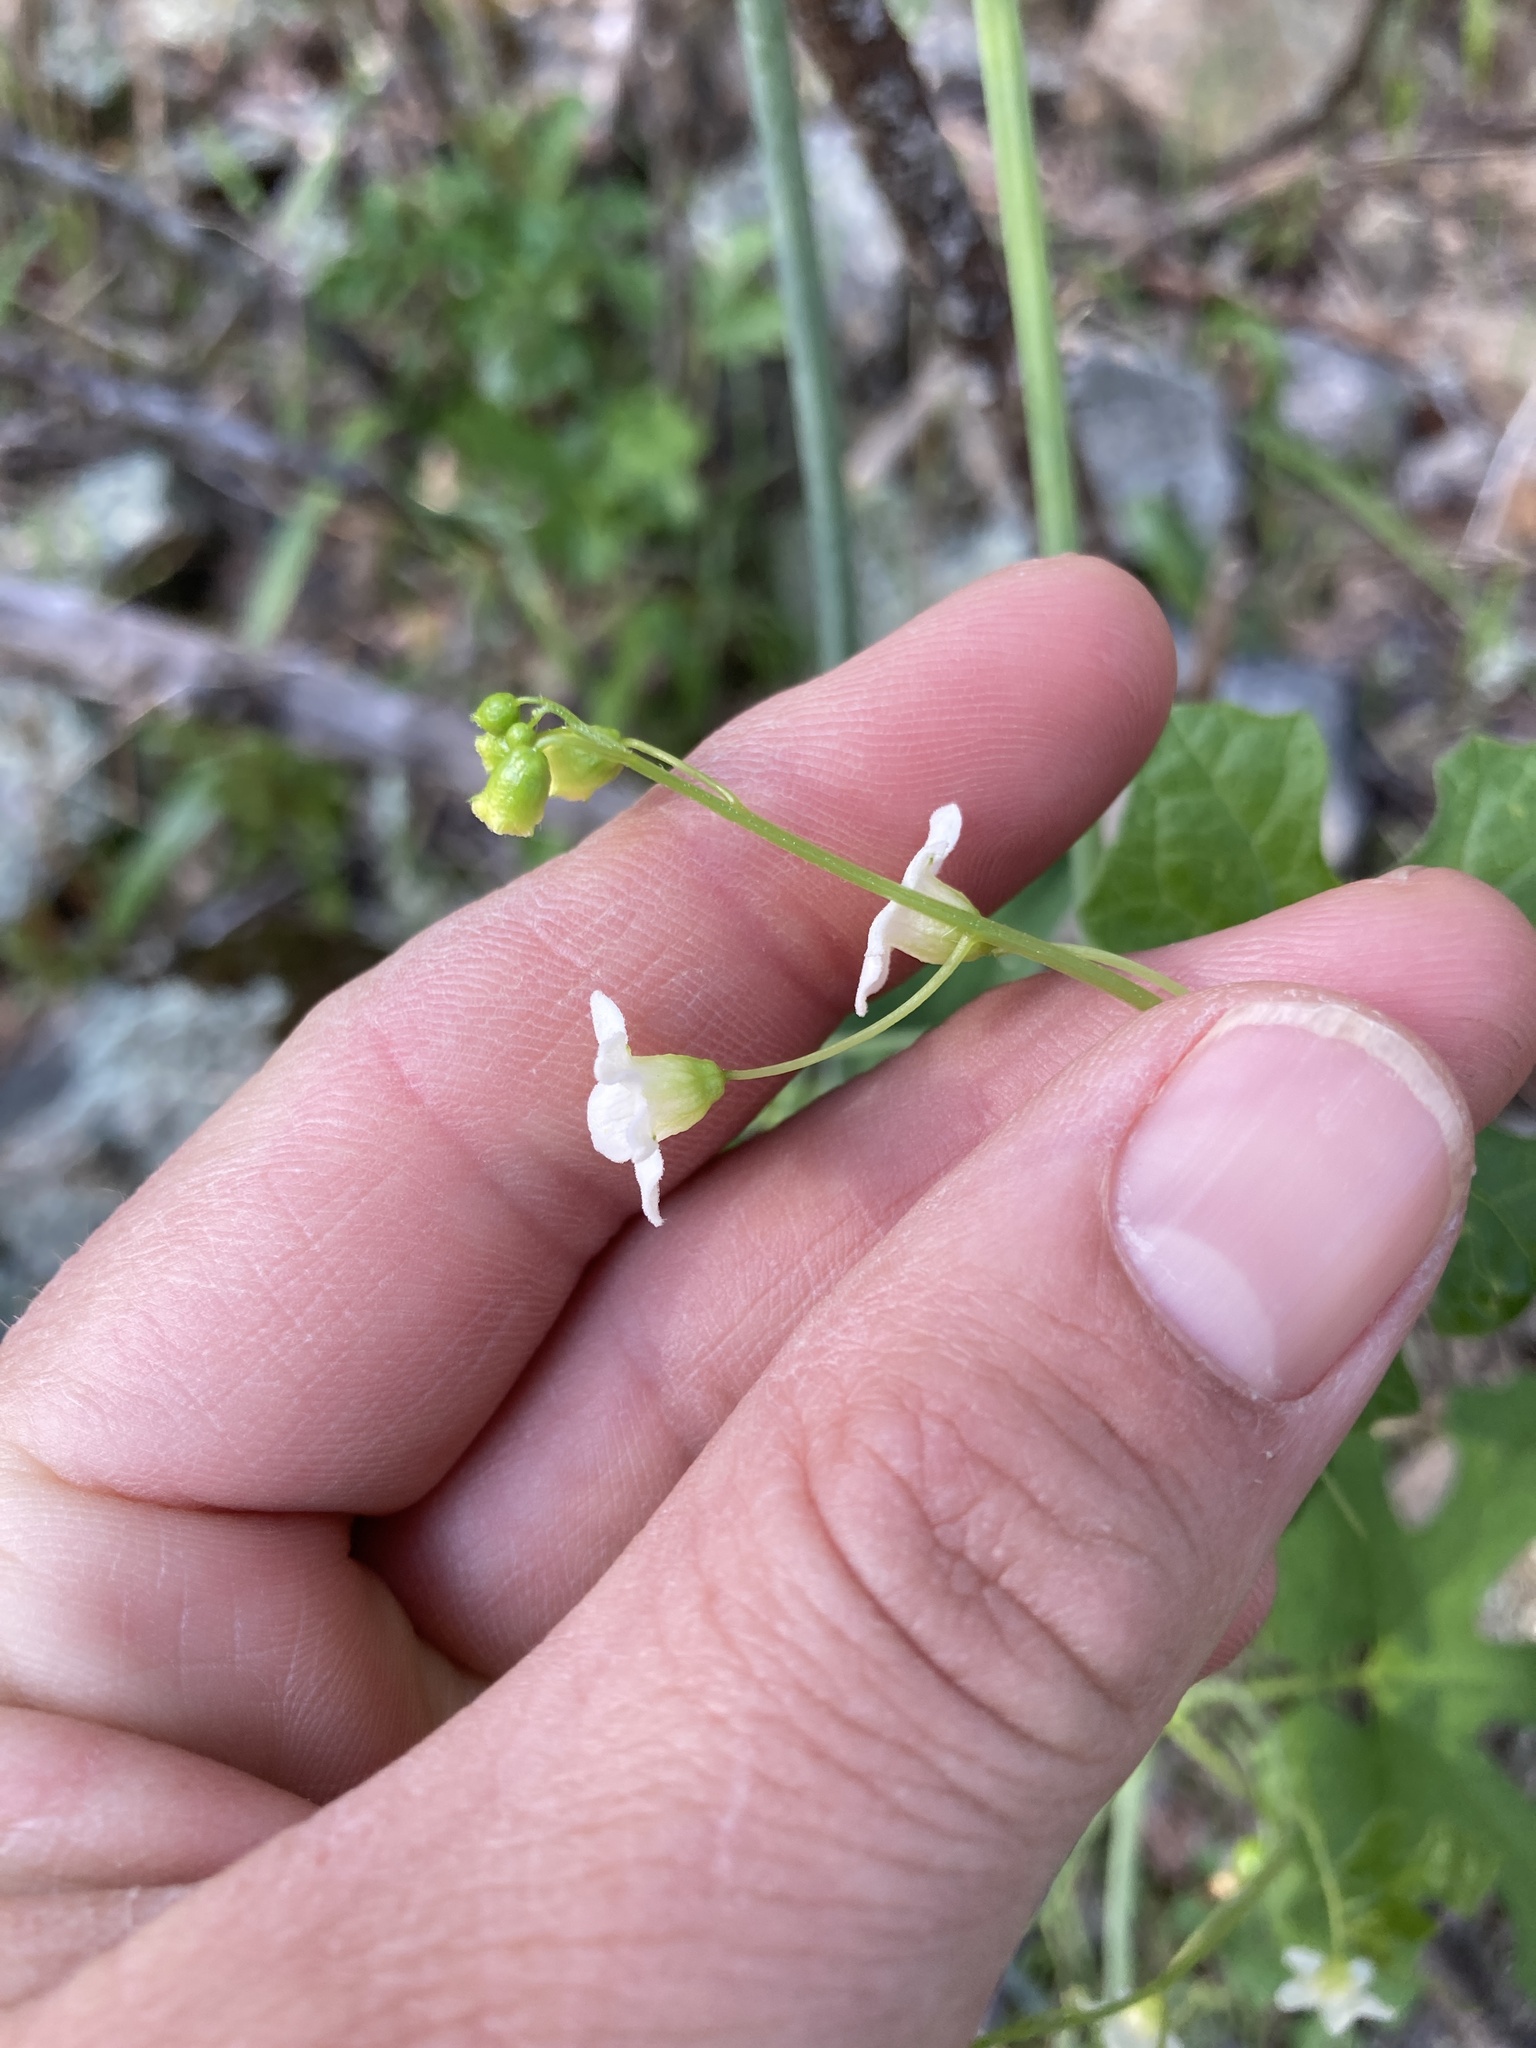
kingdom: Plantae
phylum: Tracheophyta
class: Magnoliopsida
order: Cucurbitales
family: Cucurbitaceae
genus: Marah
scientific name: Marah watsonii
